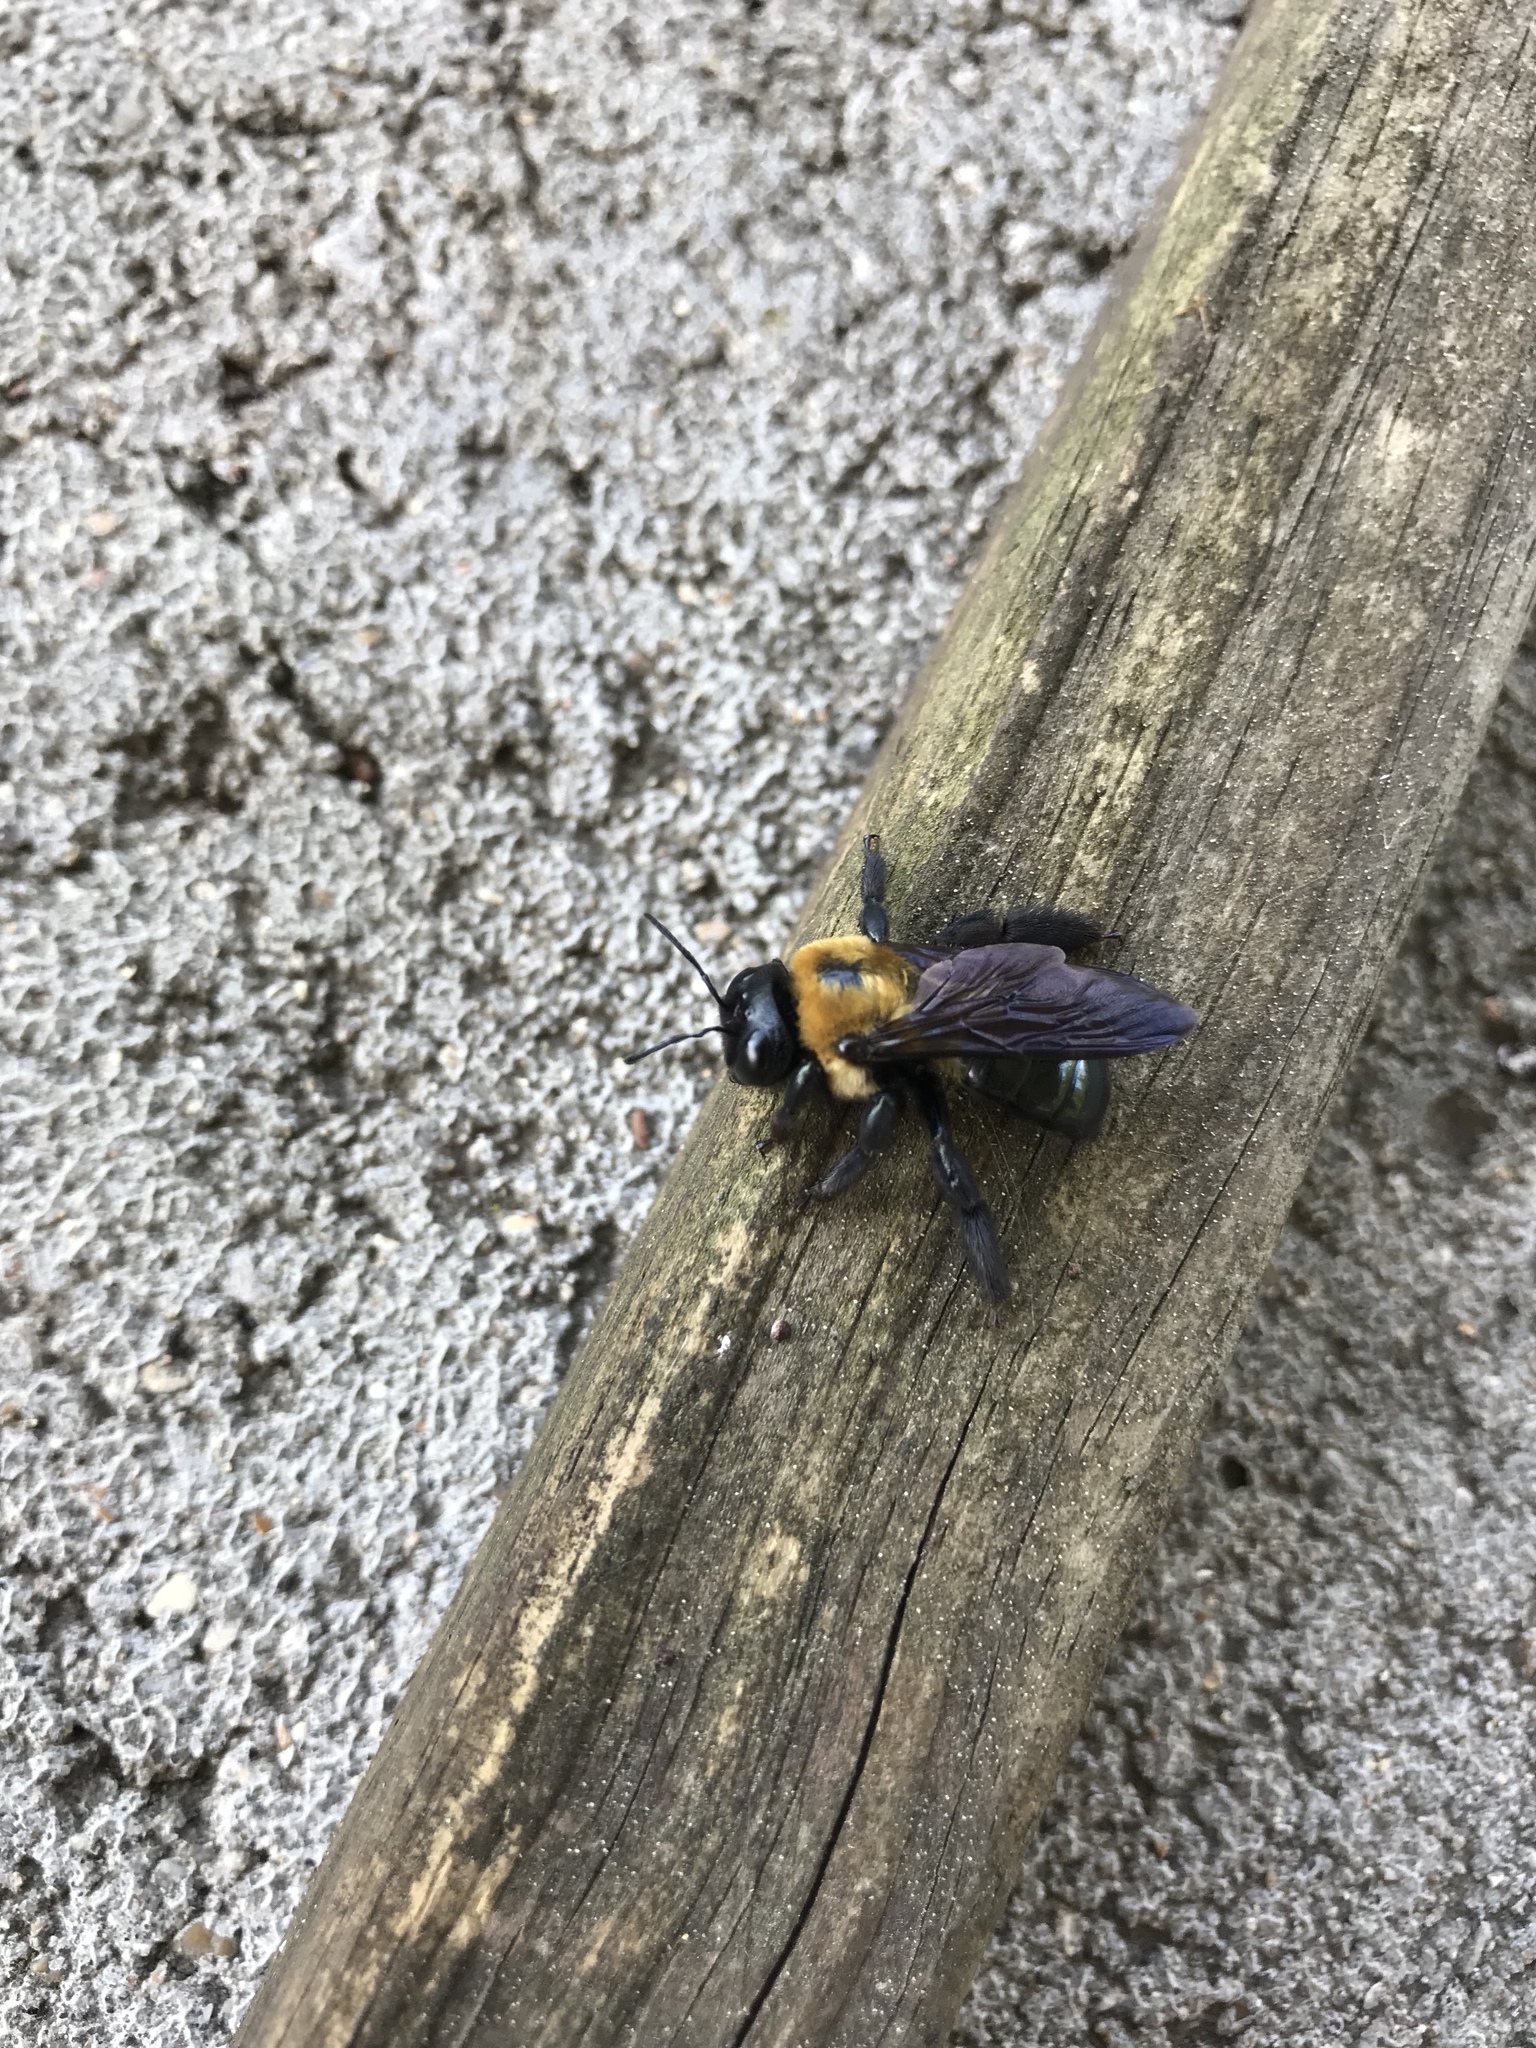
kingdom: Animalia
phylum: Arthropoda
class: Insecta
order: Hymenoptera
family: Apidae
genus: Xylocopa
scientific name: Xylocopa virginica
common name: Carpenter bee
